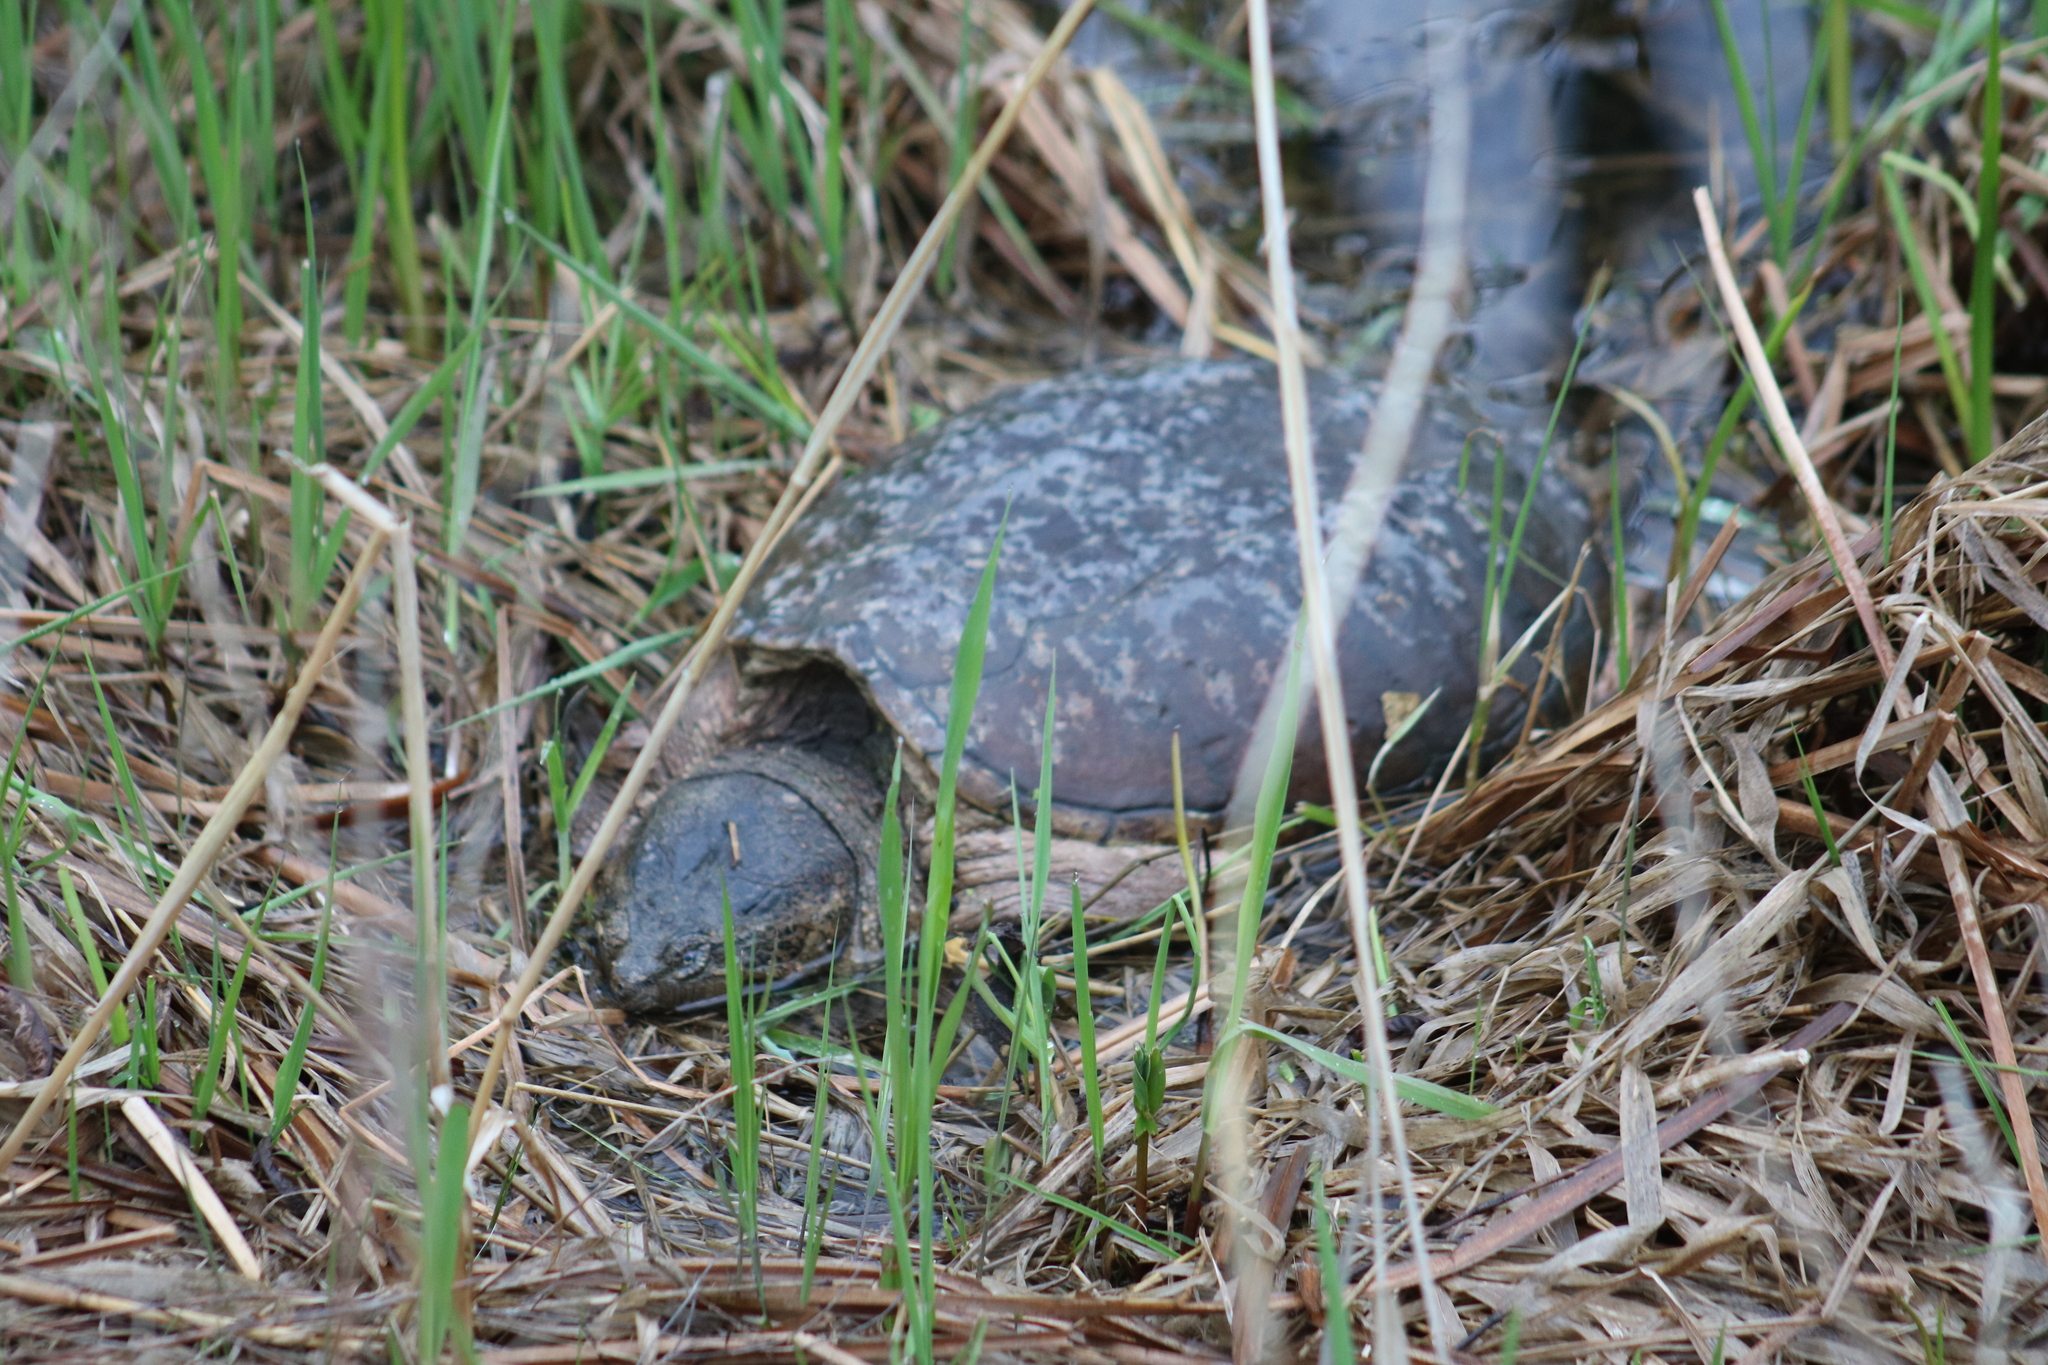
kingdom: Animalia
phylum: Chordata
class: Testudines
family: Chelydridae
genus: Chelydra
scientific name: Chelydra serpentina
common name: Common snapping turtle
